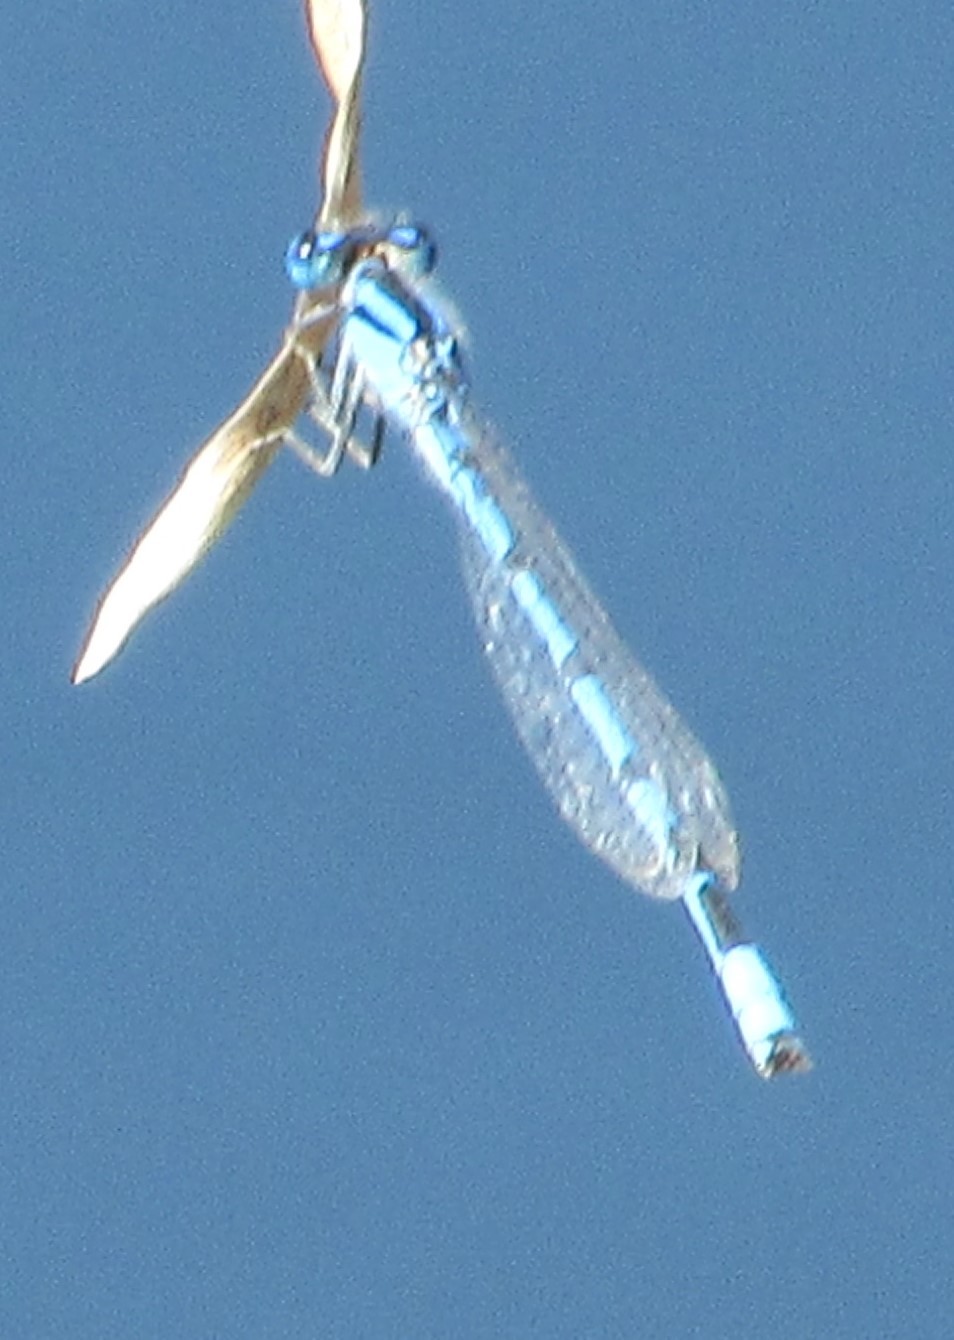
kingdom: Animalia
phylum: Arthropoda
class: Insecta
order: Odonata
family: Coenagrionidae
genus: Enallagma
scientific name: Enallagma civile
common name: Damselfly
